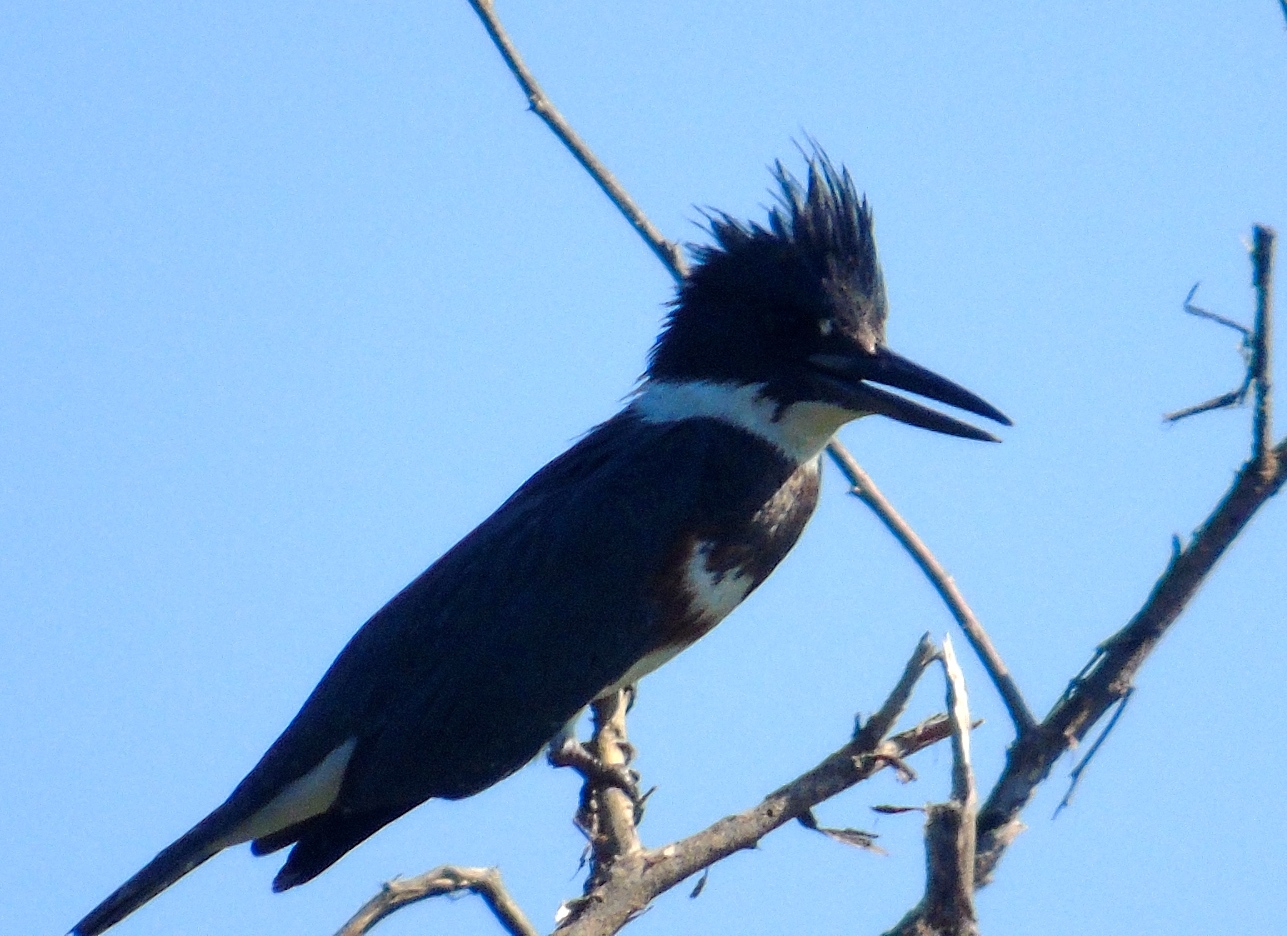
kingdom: Animalia
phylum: Chordata
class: Aves
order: Coraciiformes
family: Alcedinidae
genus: Megaceryle
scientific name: Megaceryle alcyon
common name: Belted kingfisher
